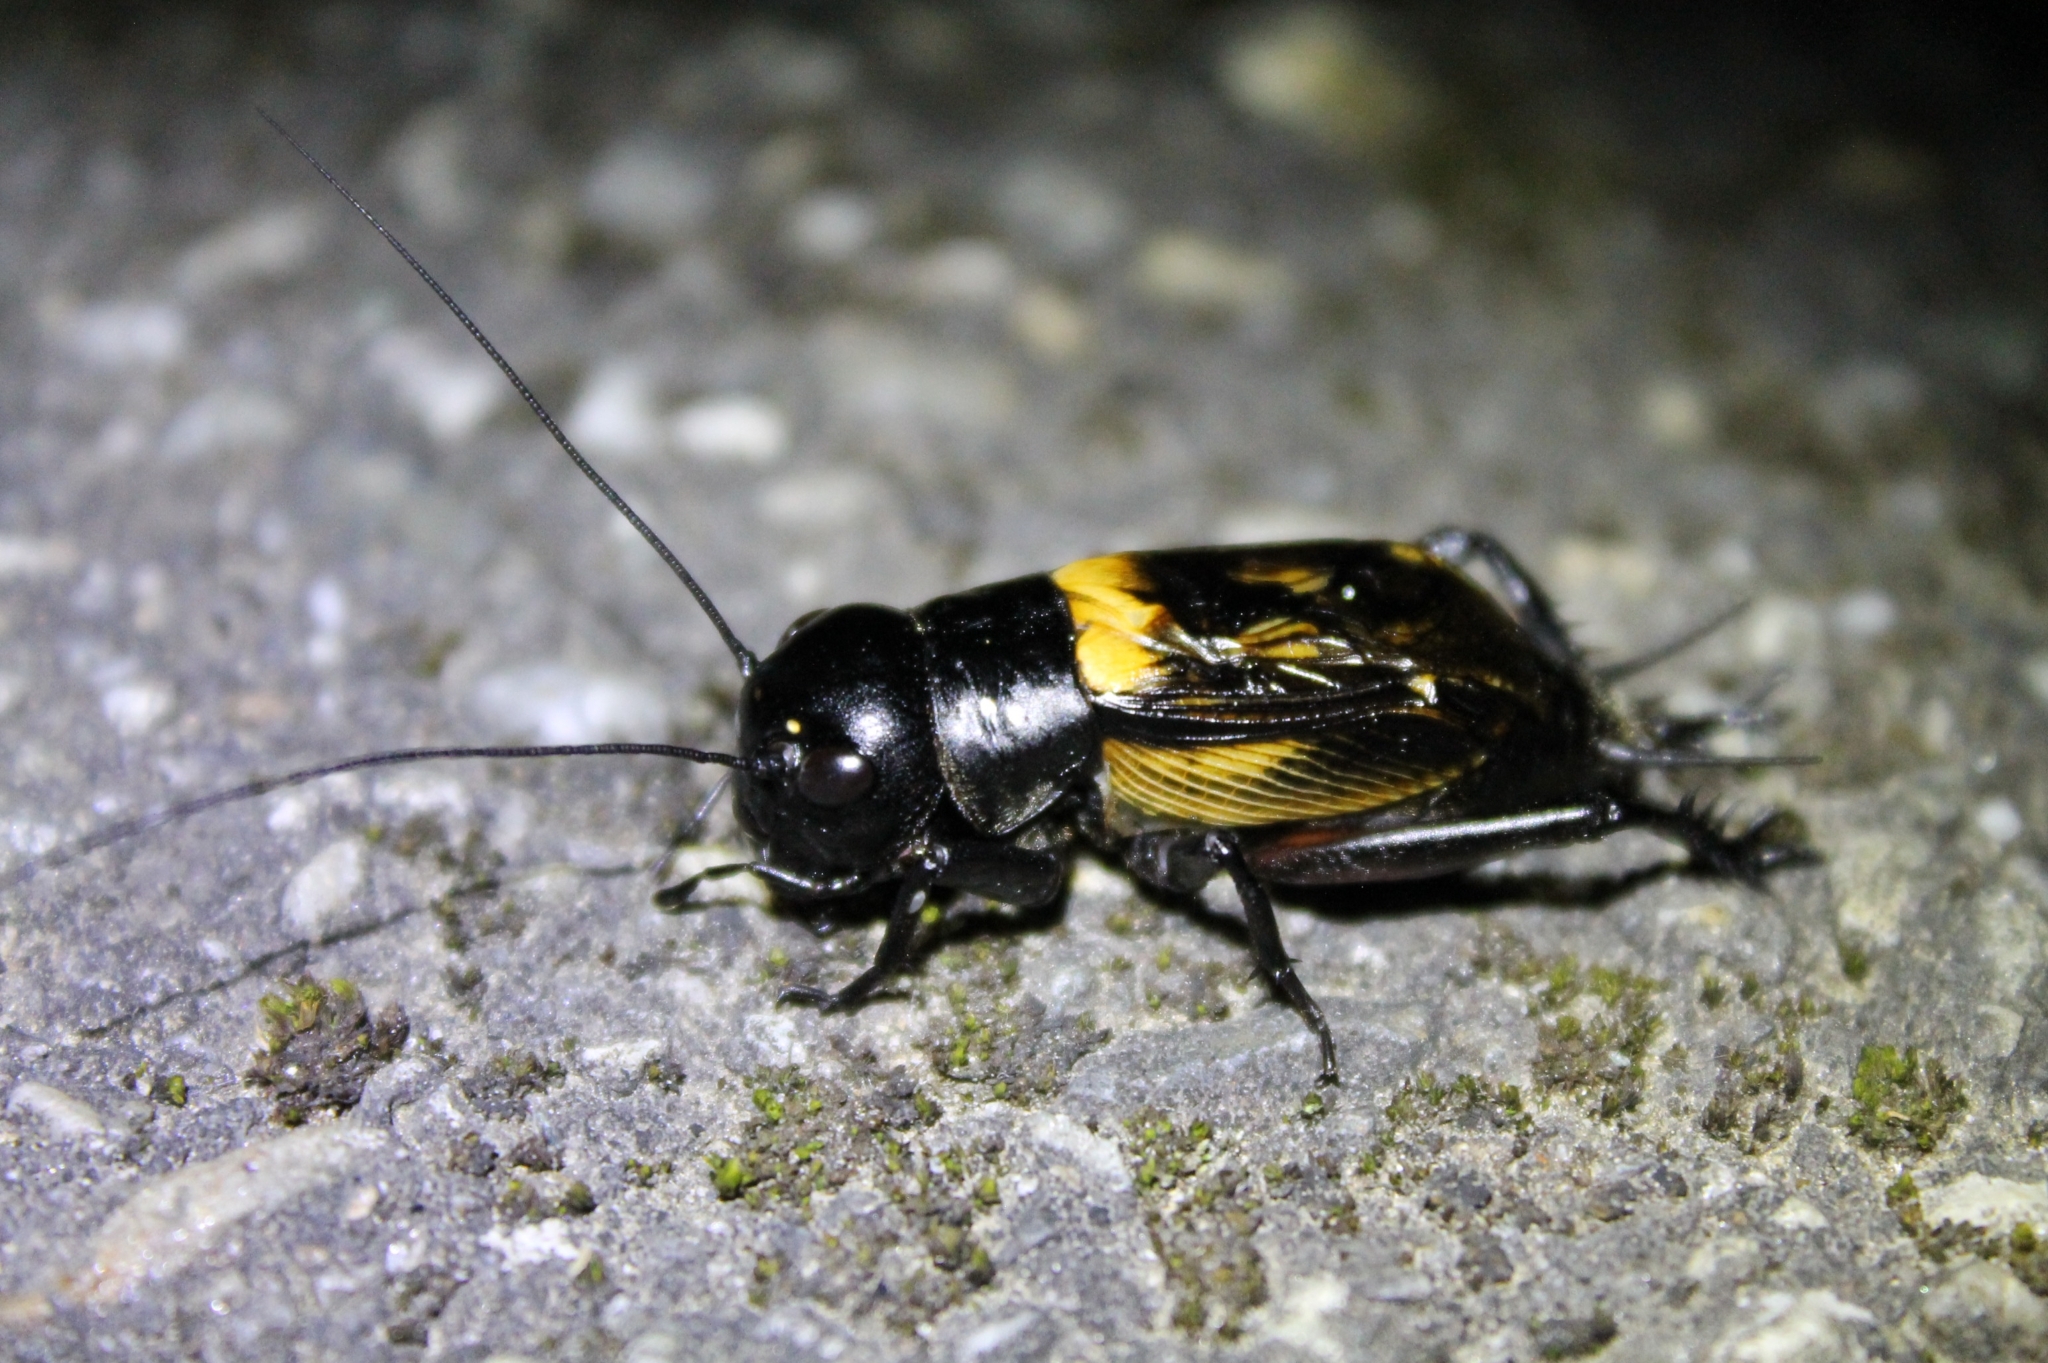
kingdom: Animalia
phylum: Arthropoda
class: Insecta
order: Orthoptera
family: Gryllidae
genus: Gryllus
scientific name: Gryllus campestris
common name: Field cricket
